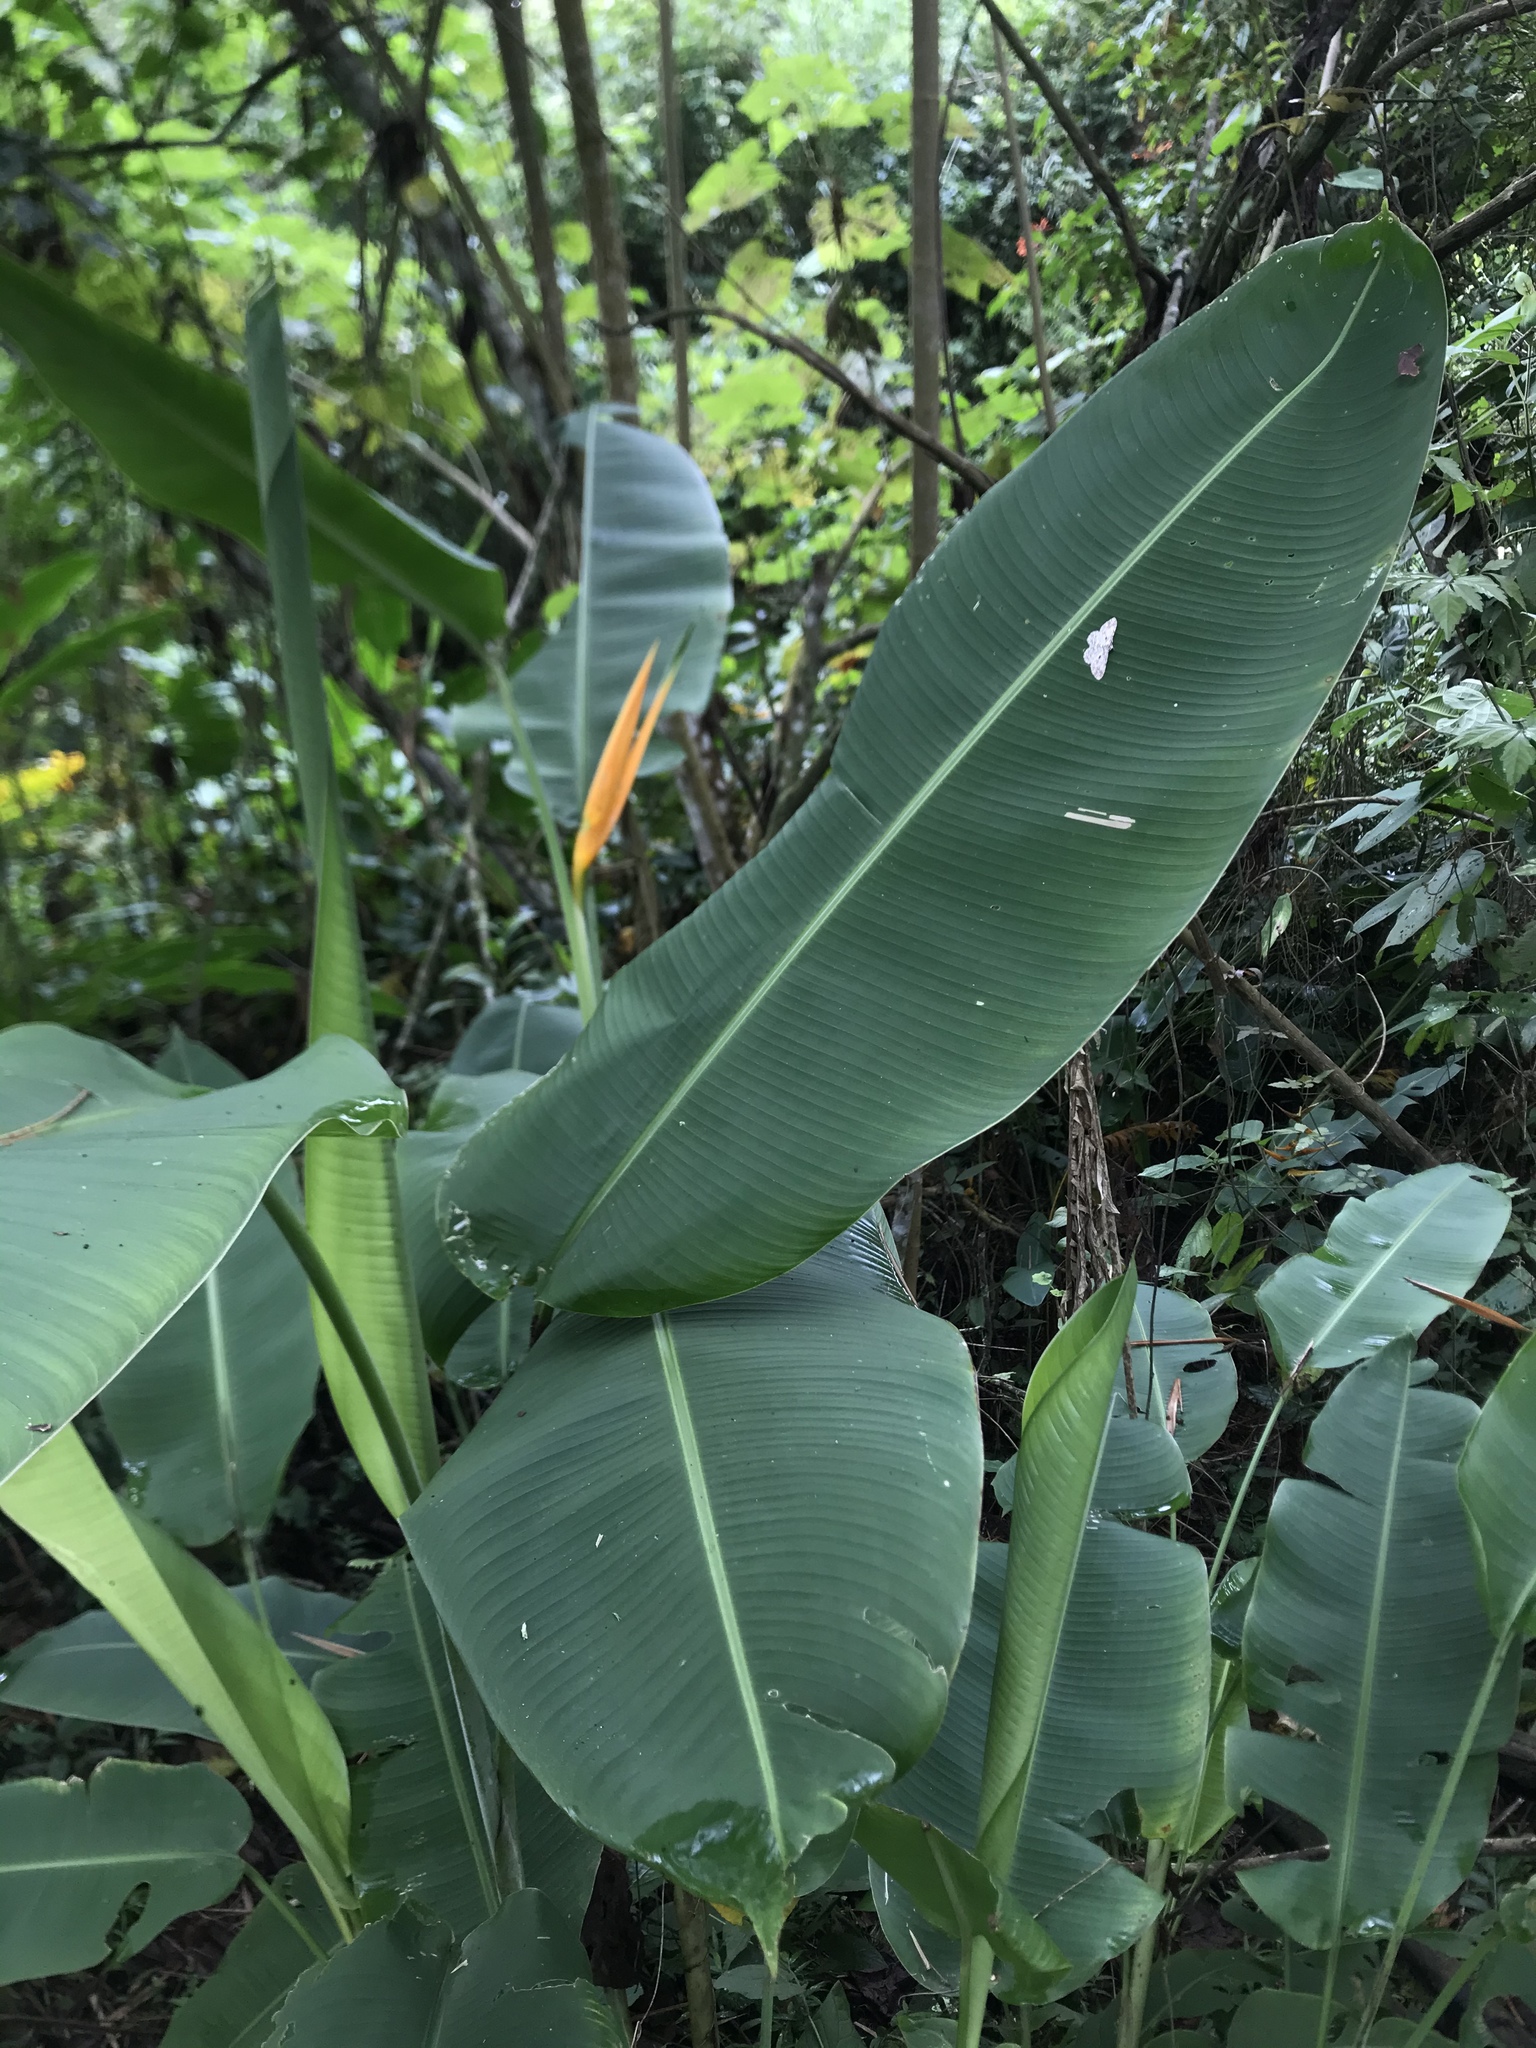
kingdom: Plantae
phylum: Tracheophyta
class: Liliopsida
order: Zingiberales
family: Heliconiaceae
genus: Heliconia
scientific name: Heliconia latispatha
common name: Expanded lobsterclaw
